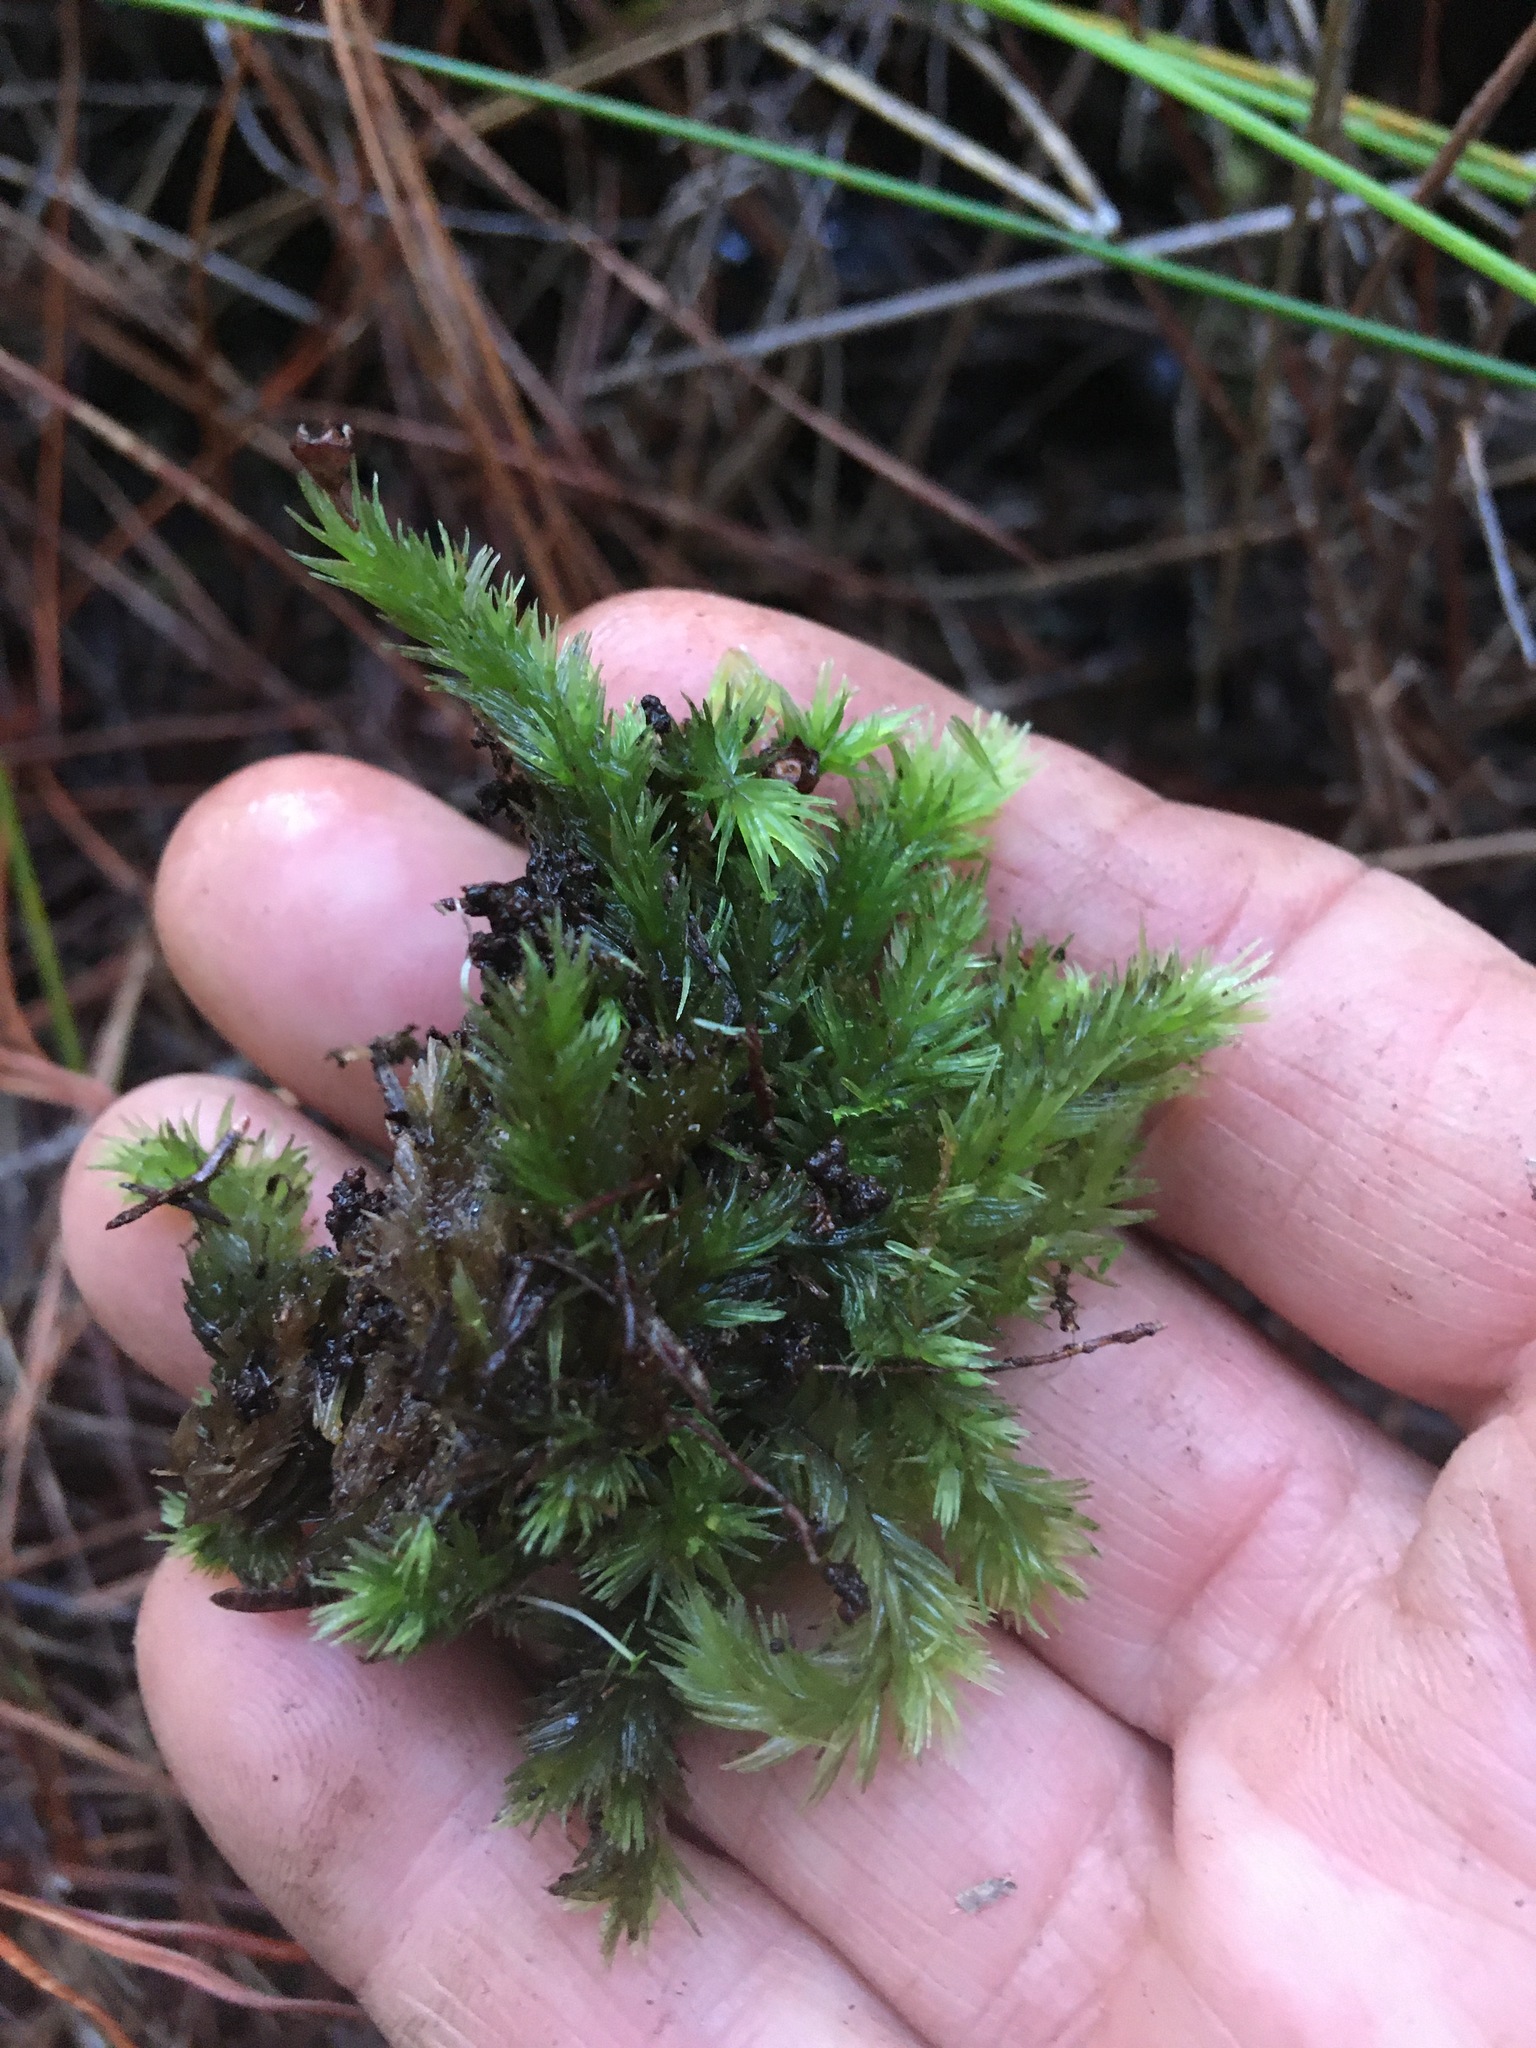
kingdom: Plantae
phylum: Bryophyta
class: Bryopsida
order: Dicranales
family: Leucobryaceae
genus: Leucobryum
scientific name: Leucobryum javense
